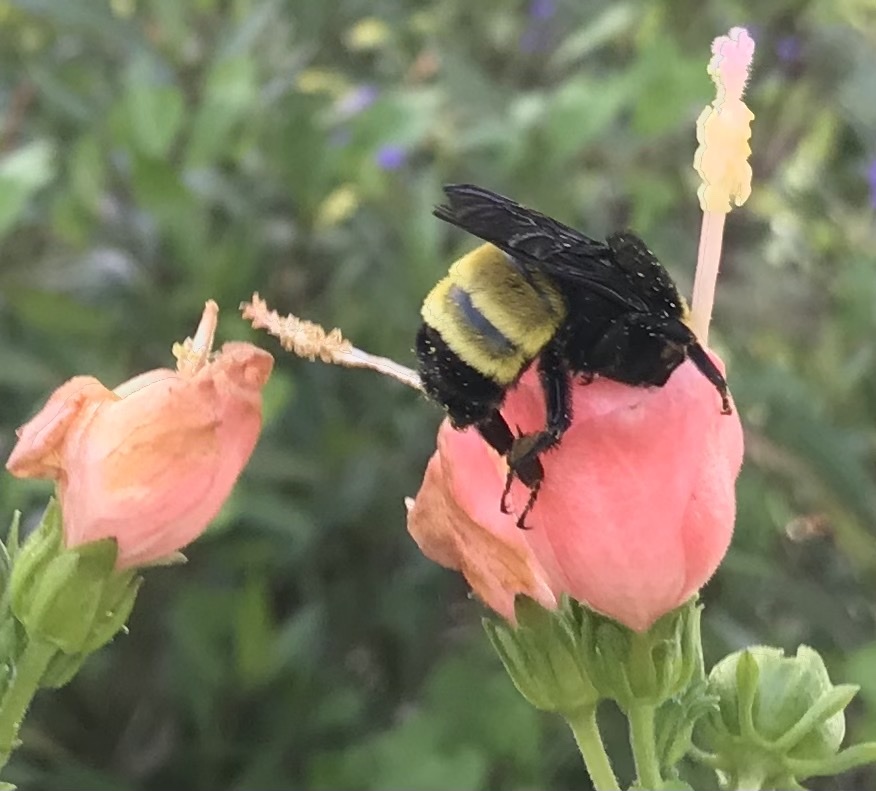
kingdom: Animalia
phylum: Arthropoda
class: Insecta
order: Hymenoptera
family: Apidae
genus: Bombus
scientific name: Bombus pensylvanicus
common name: Bumble bee
